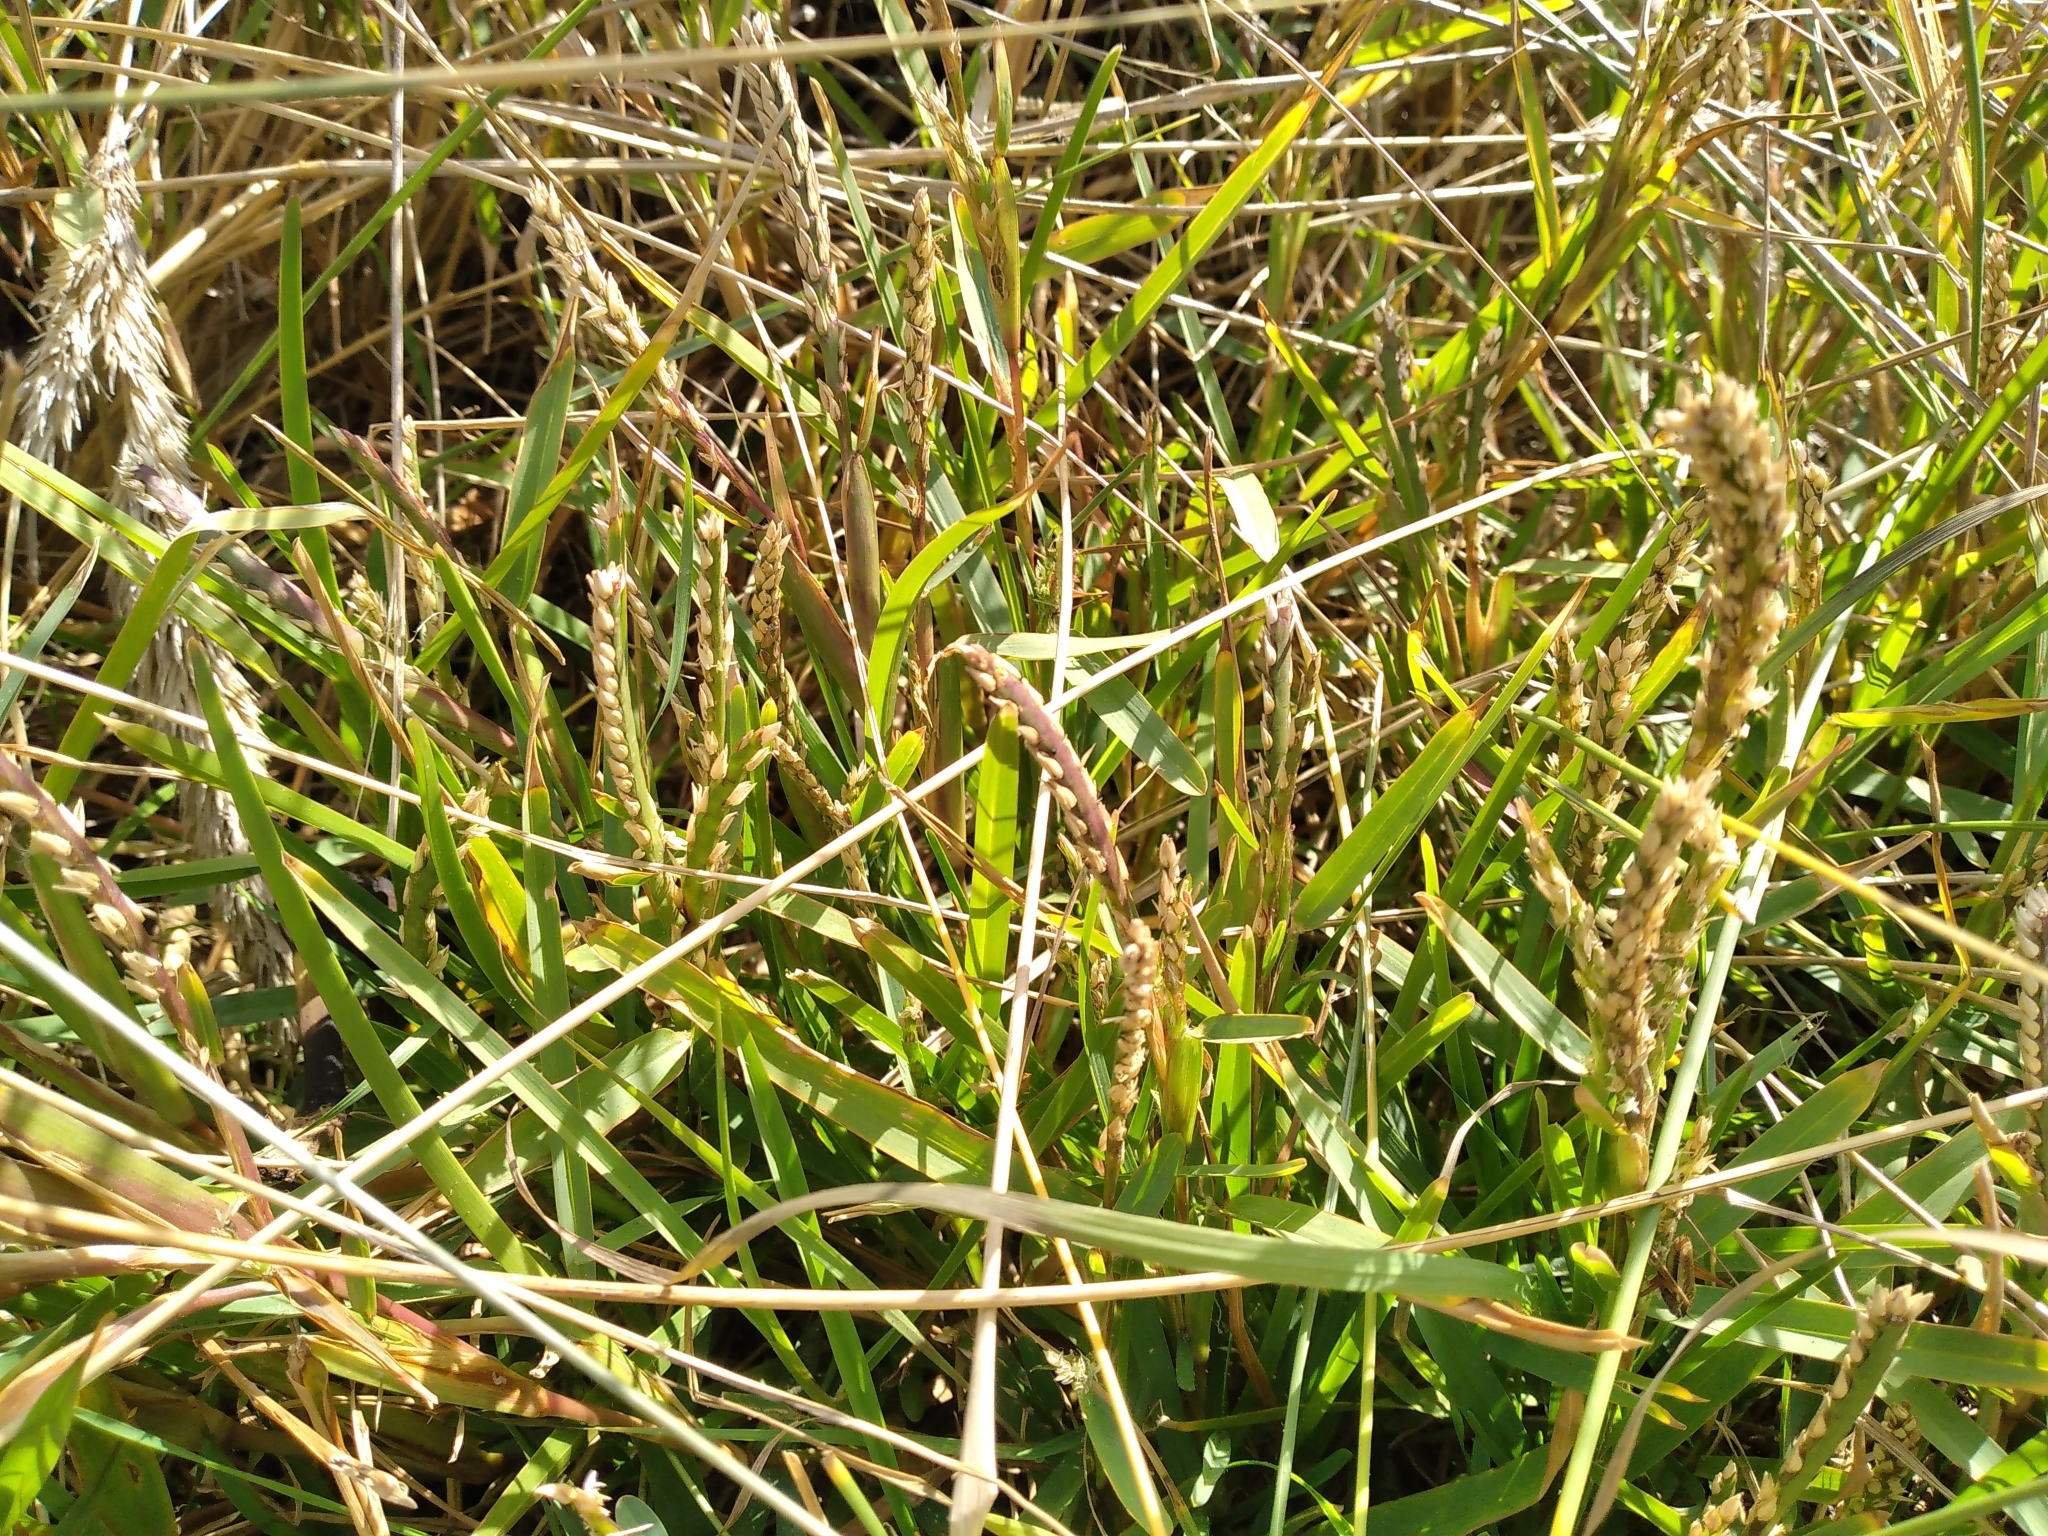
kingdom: Plantae
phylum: Tracheophyta
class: Liliopsida
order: Poales
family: Poaceae
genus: Stenotaphrum
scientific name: Stenotaphrum secundatum
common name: St. augustine grass
